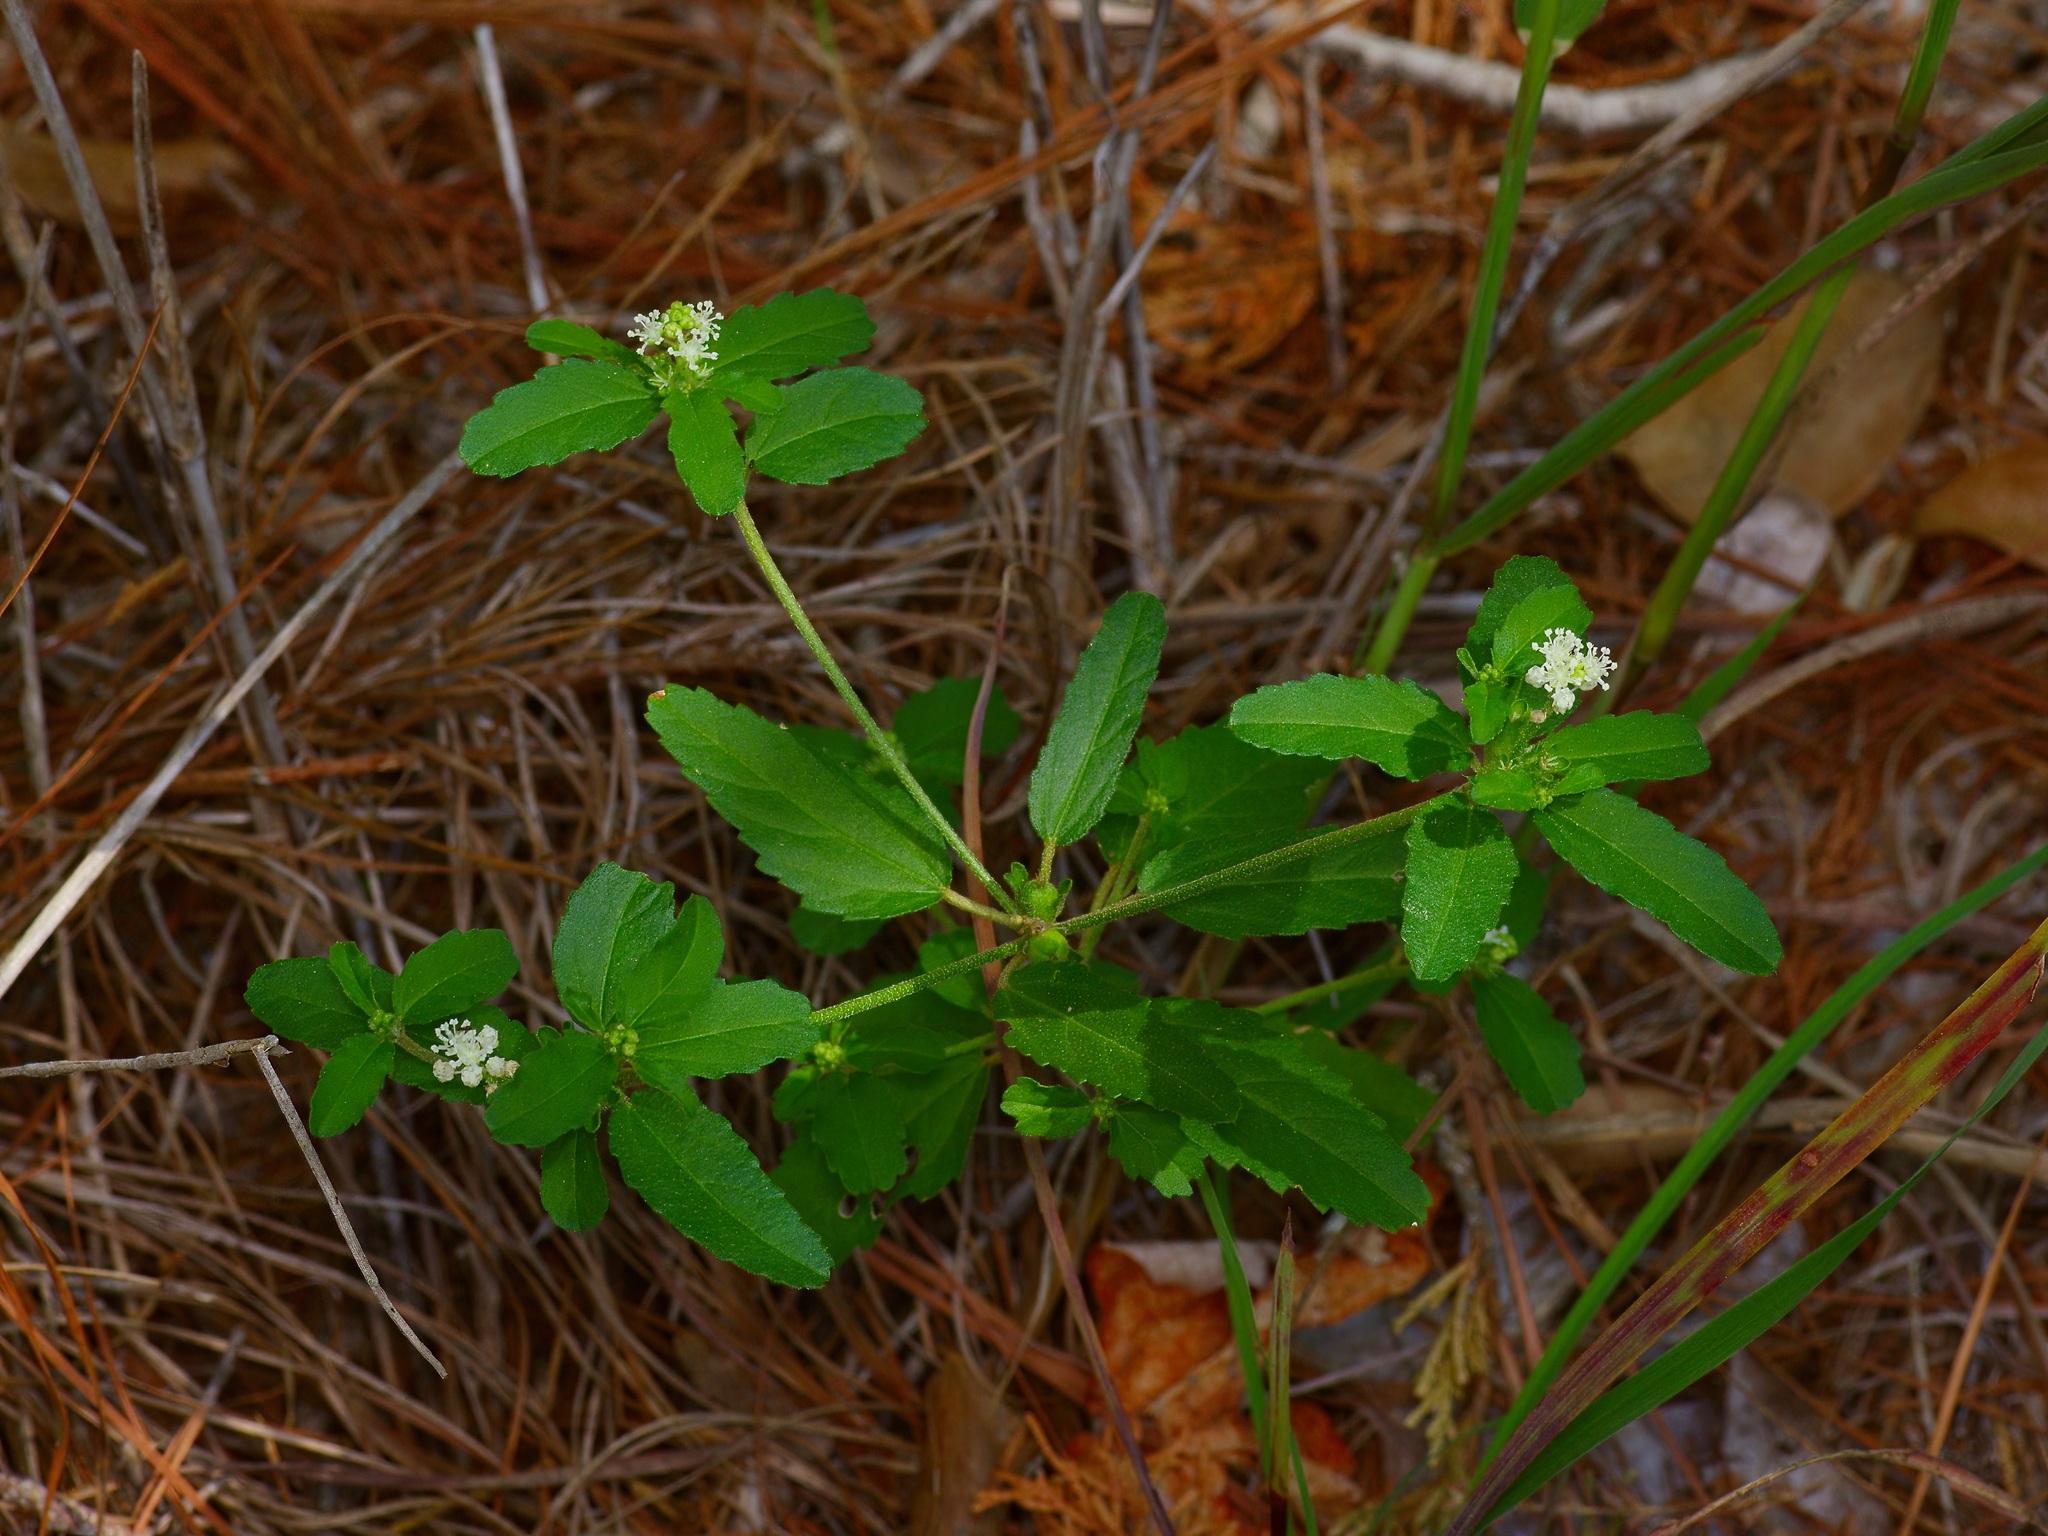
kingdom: Plantae
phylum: Tracheophyta
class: Magnoliopsida
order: Malpighiales
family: Euphorbiaceae
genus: Croton
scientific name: Croton glandulosus
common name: Tropic croton
